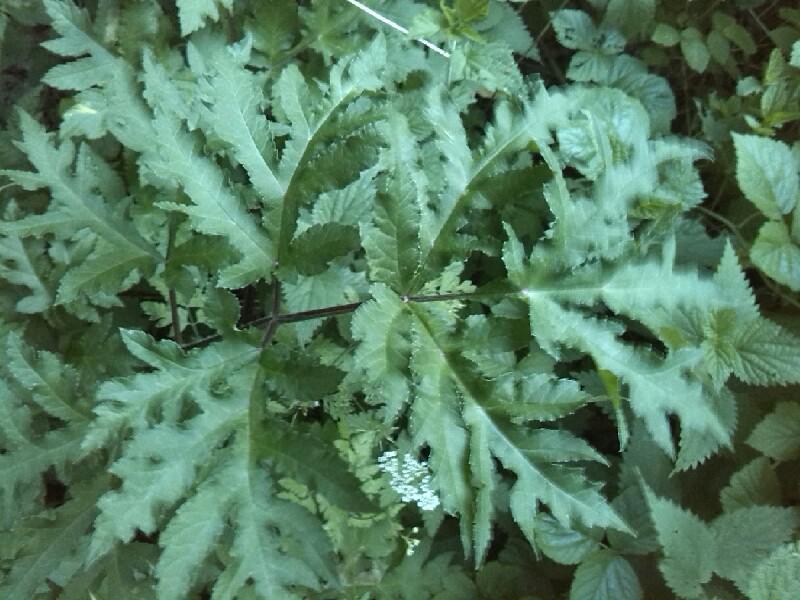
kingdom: Plantae
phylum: Tracheophyta
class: Magnoliopsida
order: Apiales
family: Apiaceae
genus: Heracleum
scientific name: Heracleum sphondylium
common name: Hogweed
